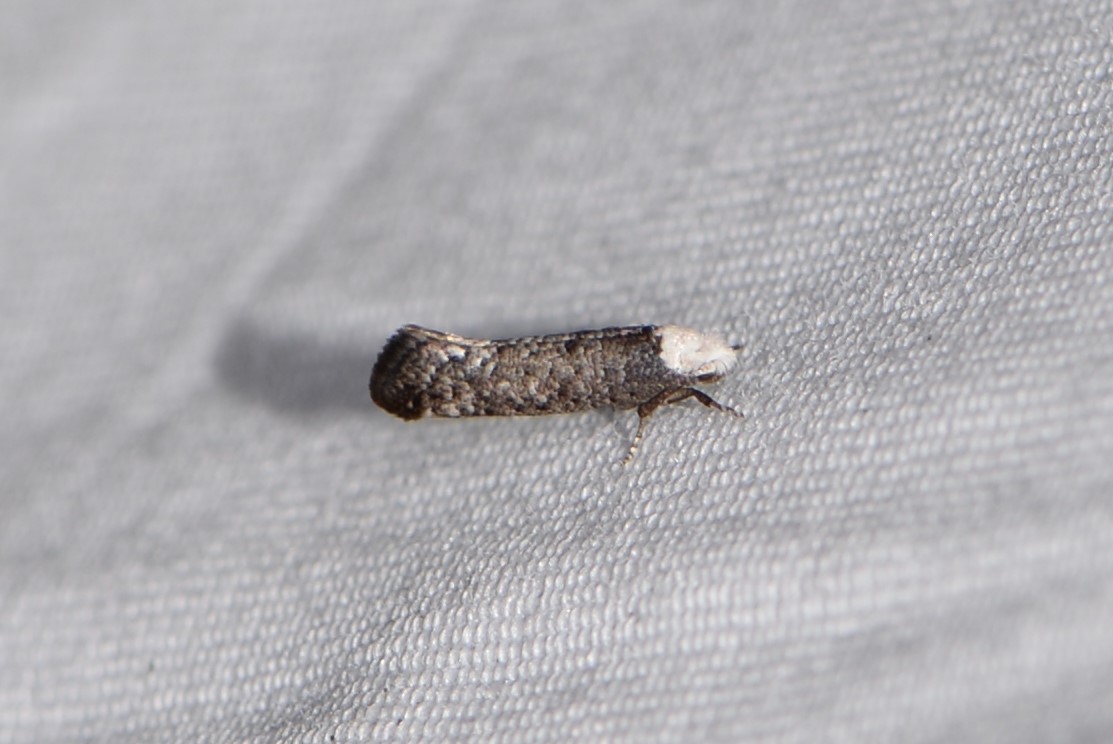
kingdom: Animalia
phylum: Arthropoda
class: Insecta
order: Lepidoptera
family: Yponomeutidae
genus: Swammerdamia
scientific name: Swammerdamia
